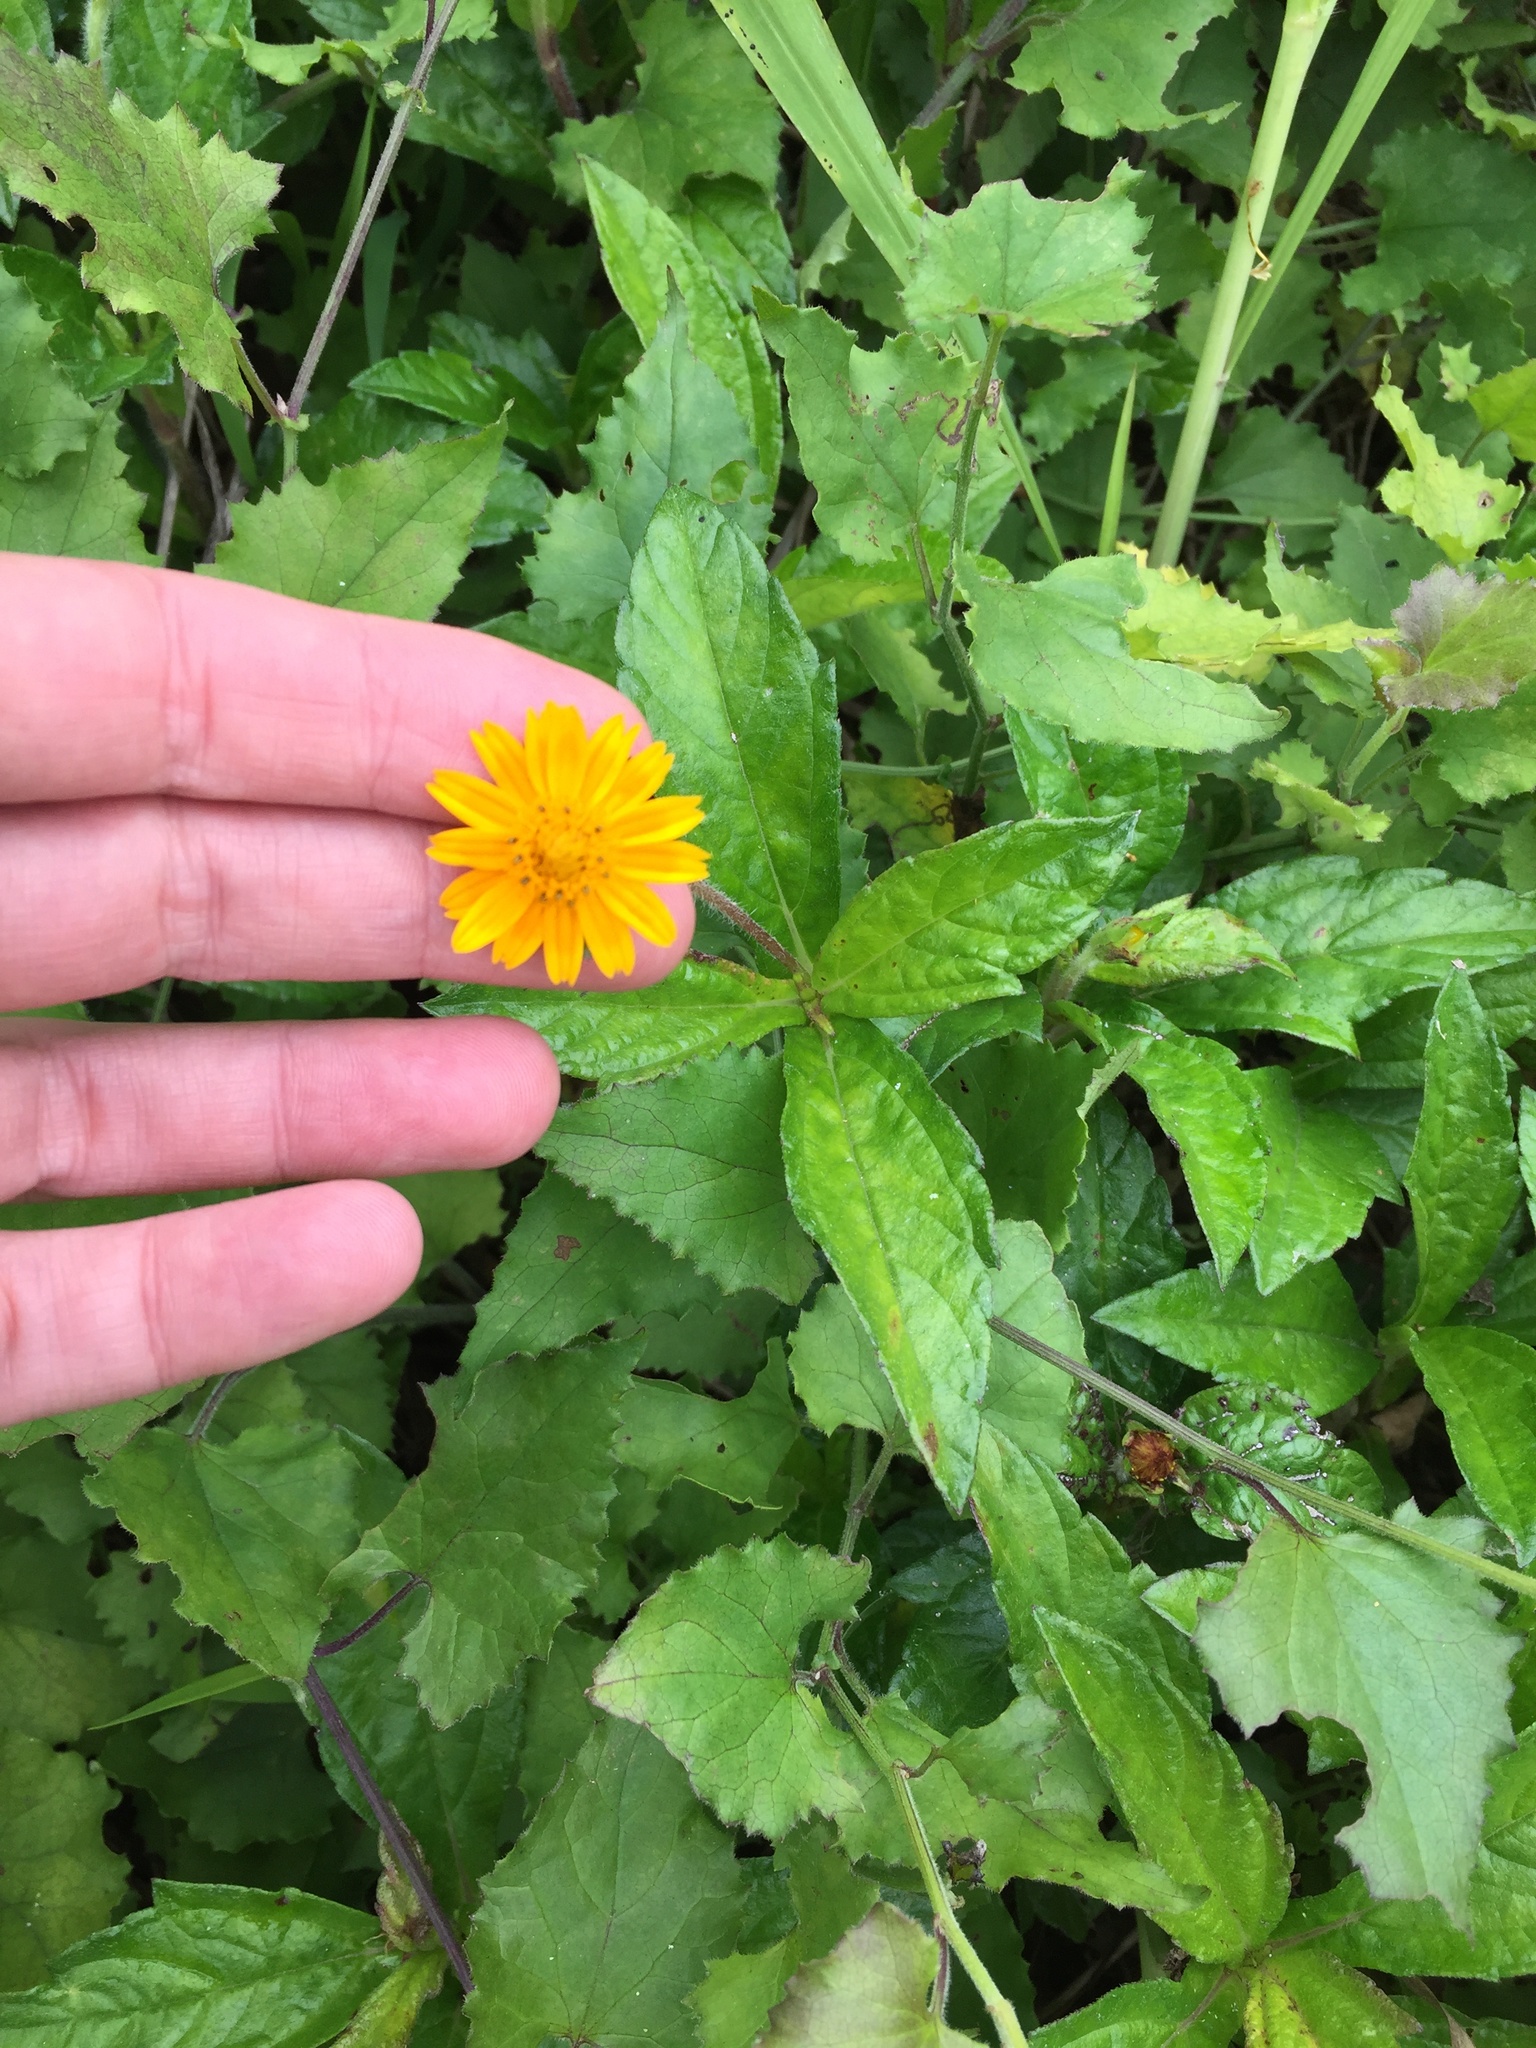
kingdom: Plantae
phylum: Tracheophyta
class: Magnoliopsida
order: Asterales
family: Asteraceae
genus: Sphagneticola
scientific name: Sphagneticola trilobata
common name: Bay biscayne creeping-oxeye
